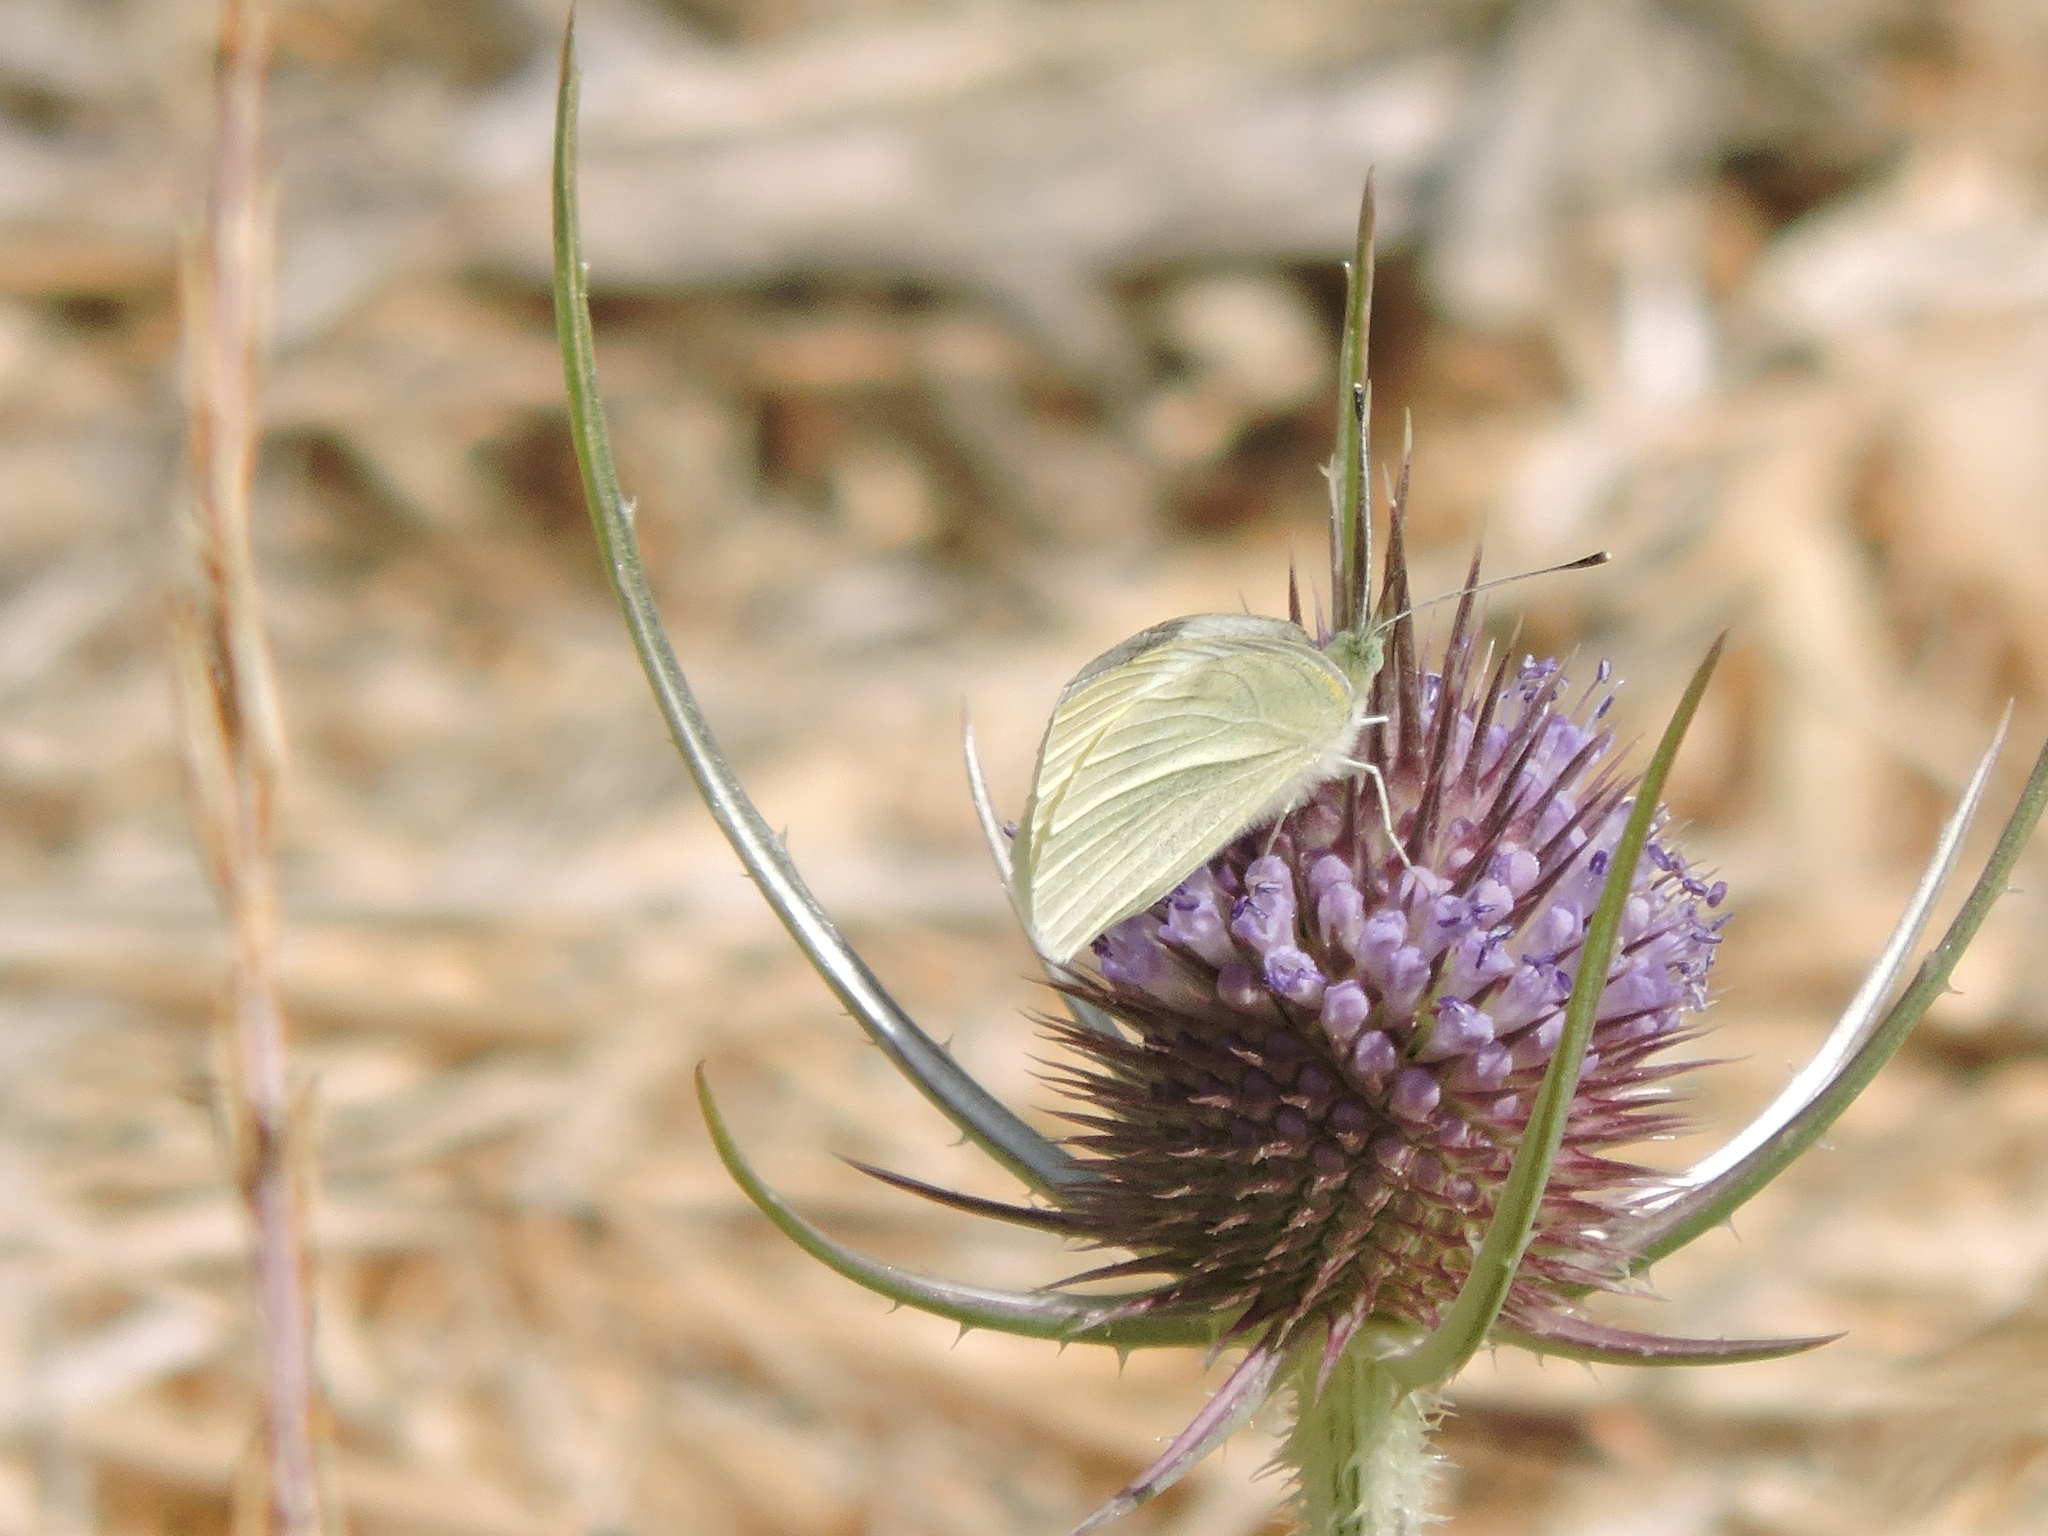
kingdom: Animalia
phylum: Arthropoda
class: Insecta
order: Lepidoptera
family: Pieridae
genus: Pieris
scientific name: Pieris rapae
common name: Small white
